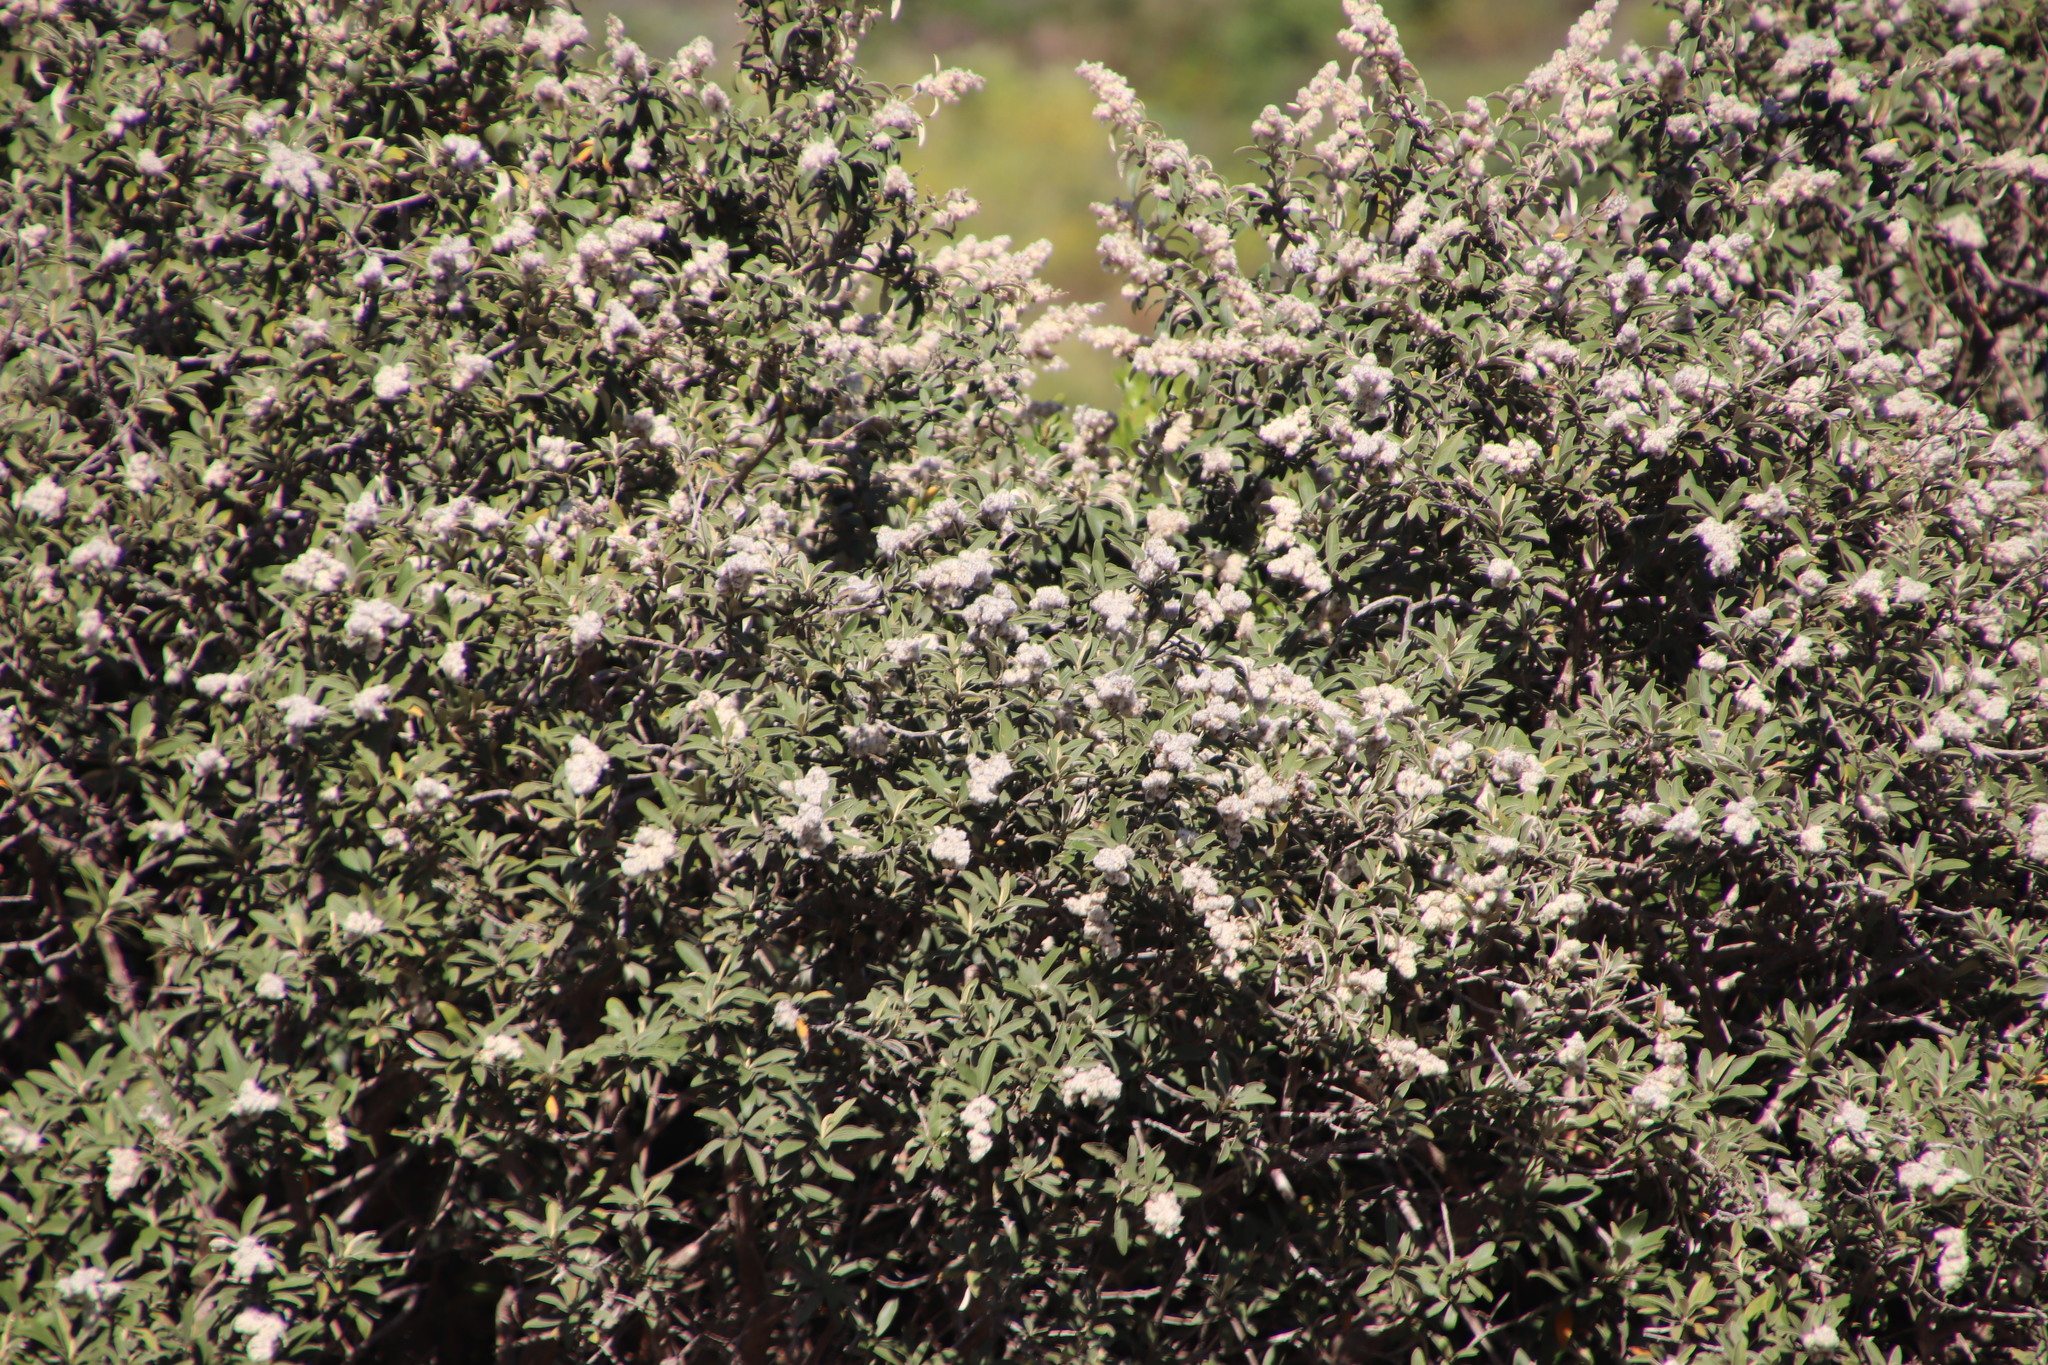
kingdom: Plantae
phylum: Tracheophyta
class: Magnoliopsida
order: Asterales
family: Asteraceae
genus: Tarchonanthus
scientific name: Tarchonanthus littoralis
